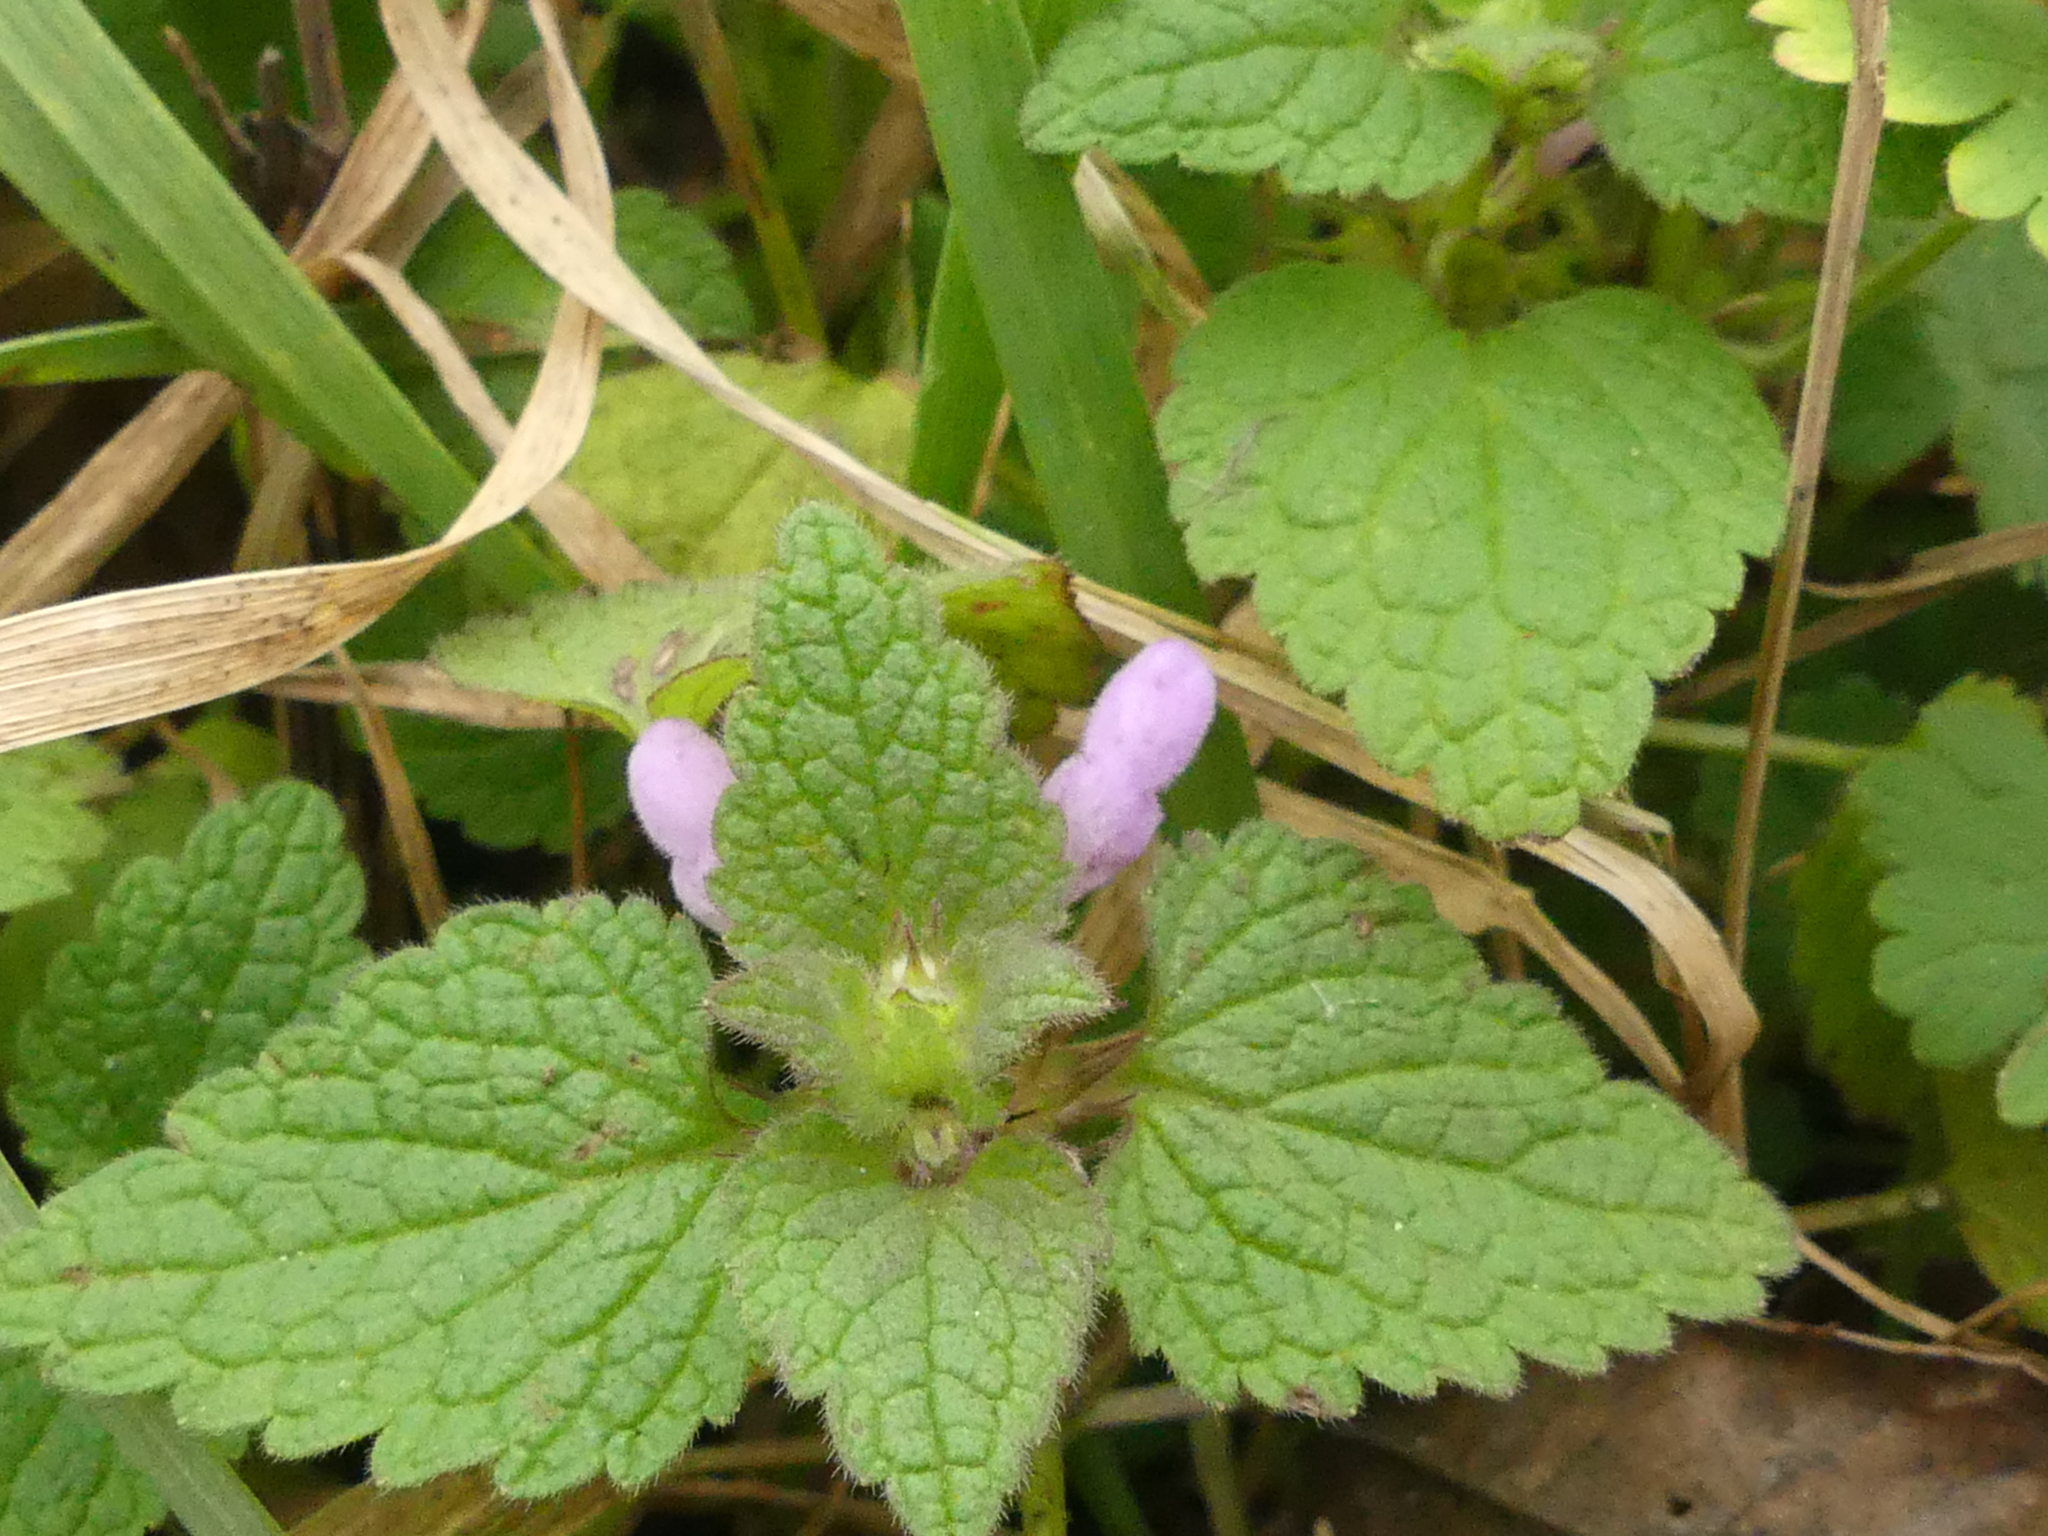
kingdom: Plantae
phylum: Tracheophyta
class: Magnoliopsida
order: Lamiales
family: Lamiaceae
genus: Lamium
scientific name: Lamium purpureum
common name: Red dead-nettle
